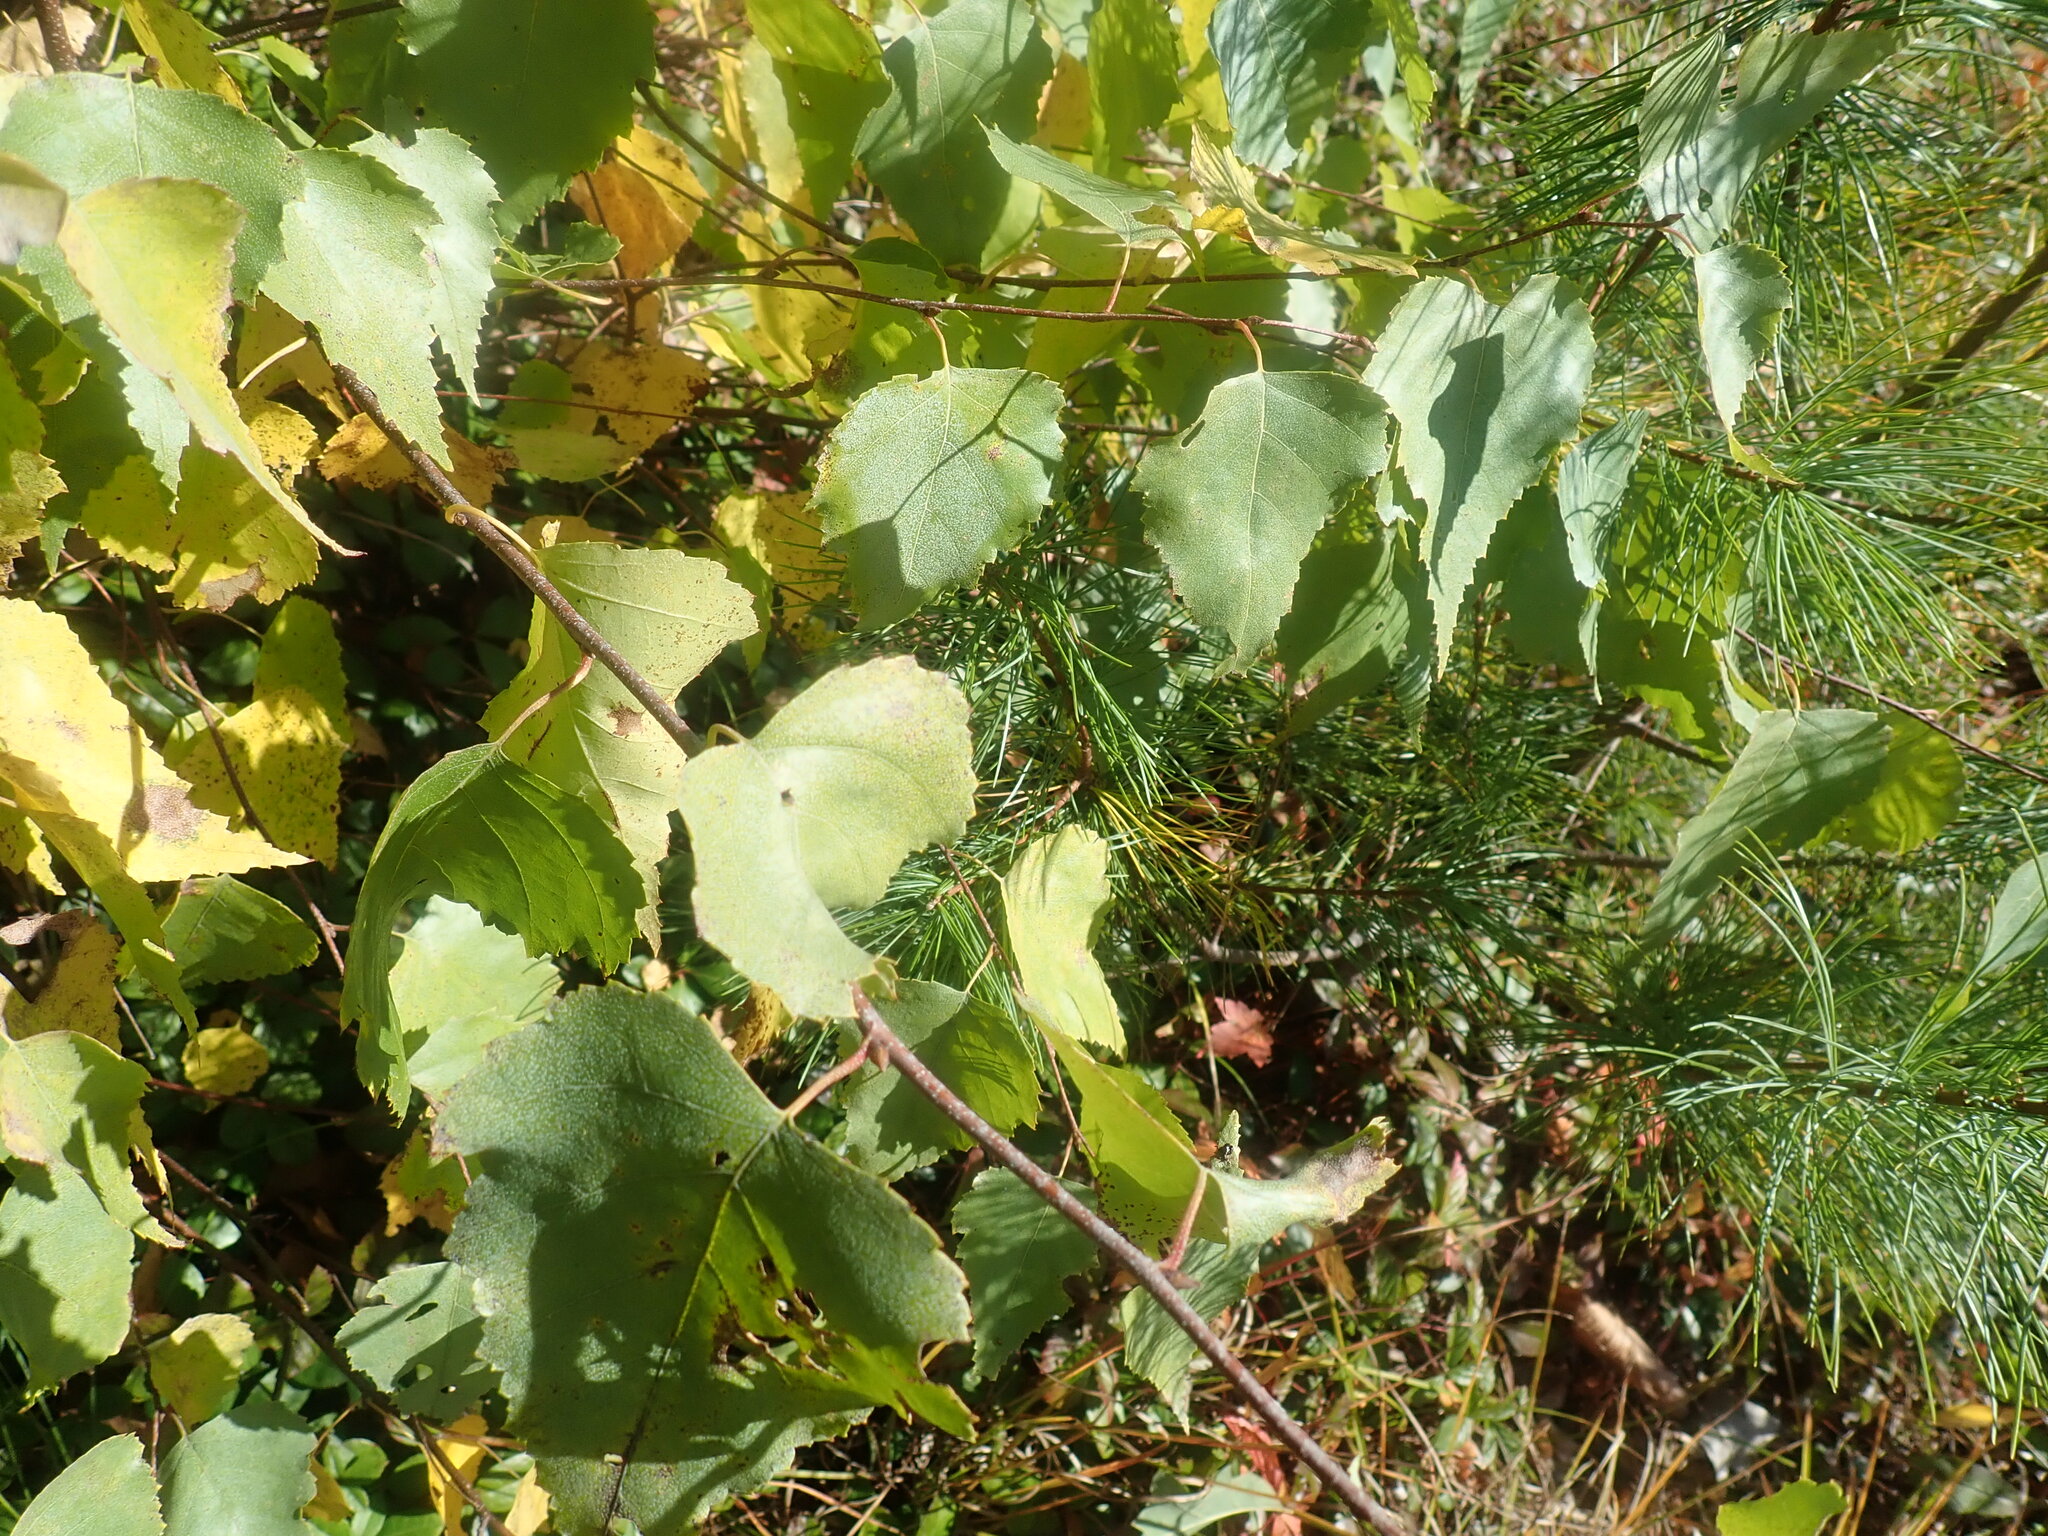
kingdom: Plantae
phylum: Tracheophyta
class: Magnoliopsida
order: Fagales
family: Betulaceae
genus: Betula
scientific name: Betula populifolia
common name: Fire birch
